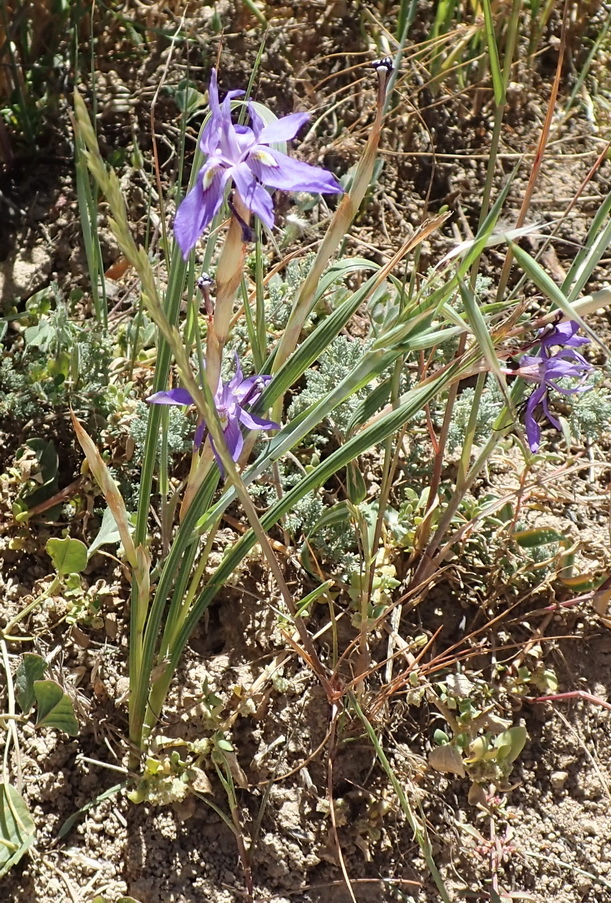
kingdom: Plantae
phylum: Tracheophyta
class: Liliopsida
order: Asparagales
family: Iridaceae
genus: Moraea
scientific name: Moraea polystachya
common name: Blue-tulip
